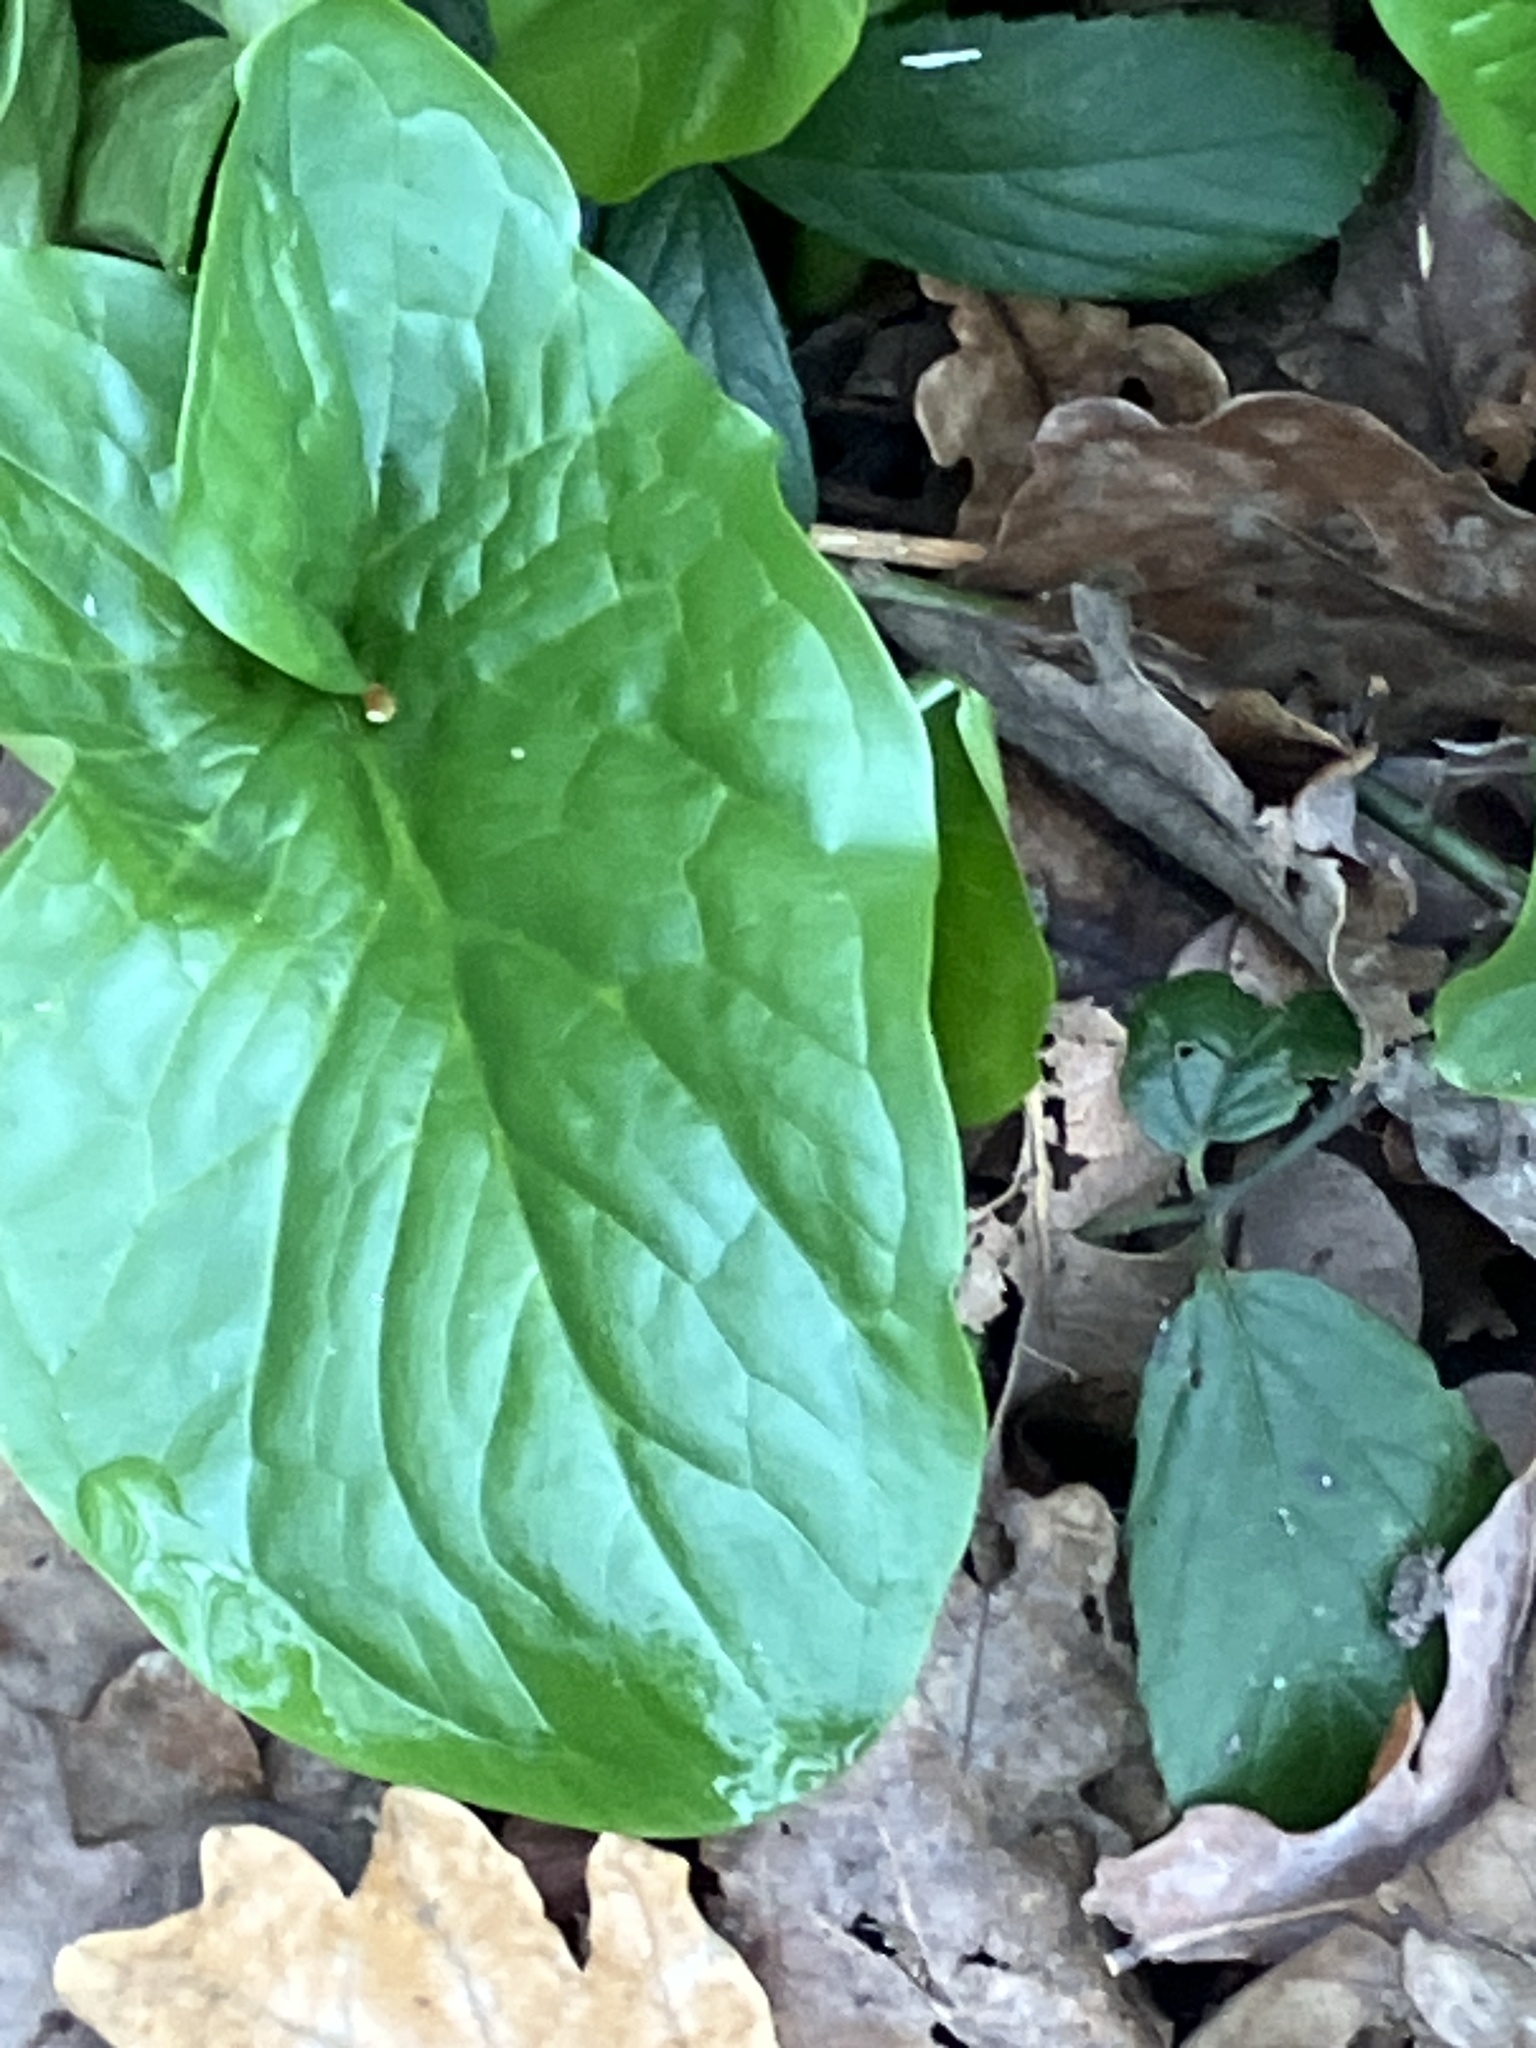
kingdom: Plantae
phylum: Tracheophyta
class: Liliopsida
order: Alismatales
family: Araceae
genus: Arum
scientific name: Arum maculatum
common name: Lords-and-ladies
